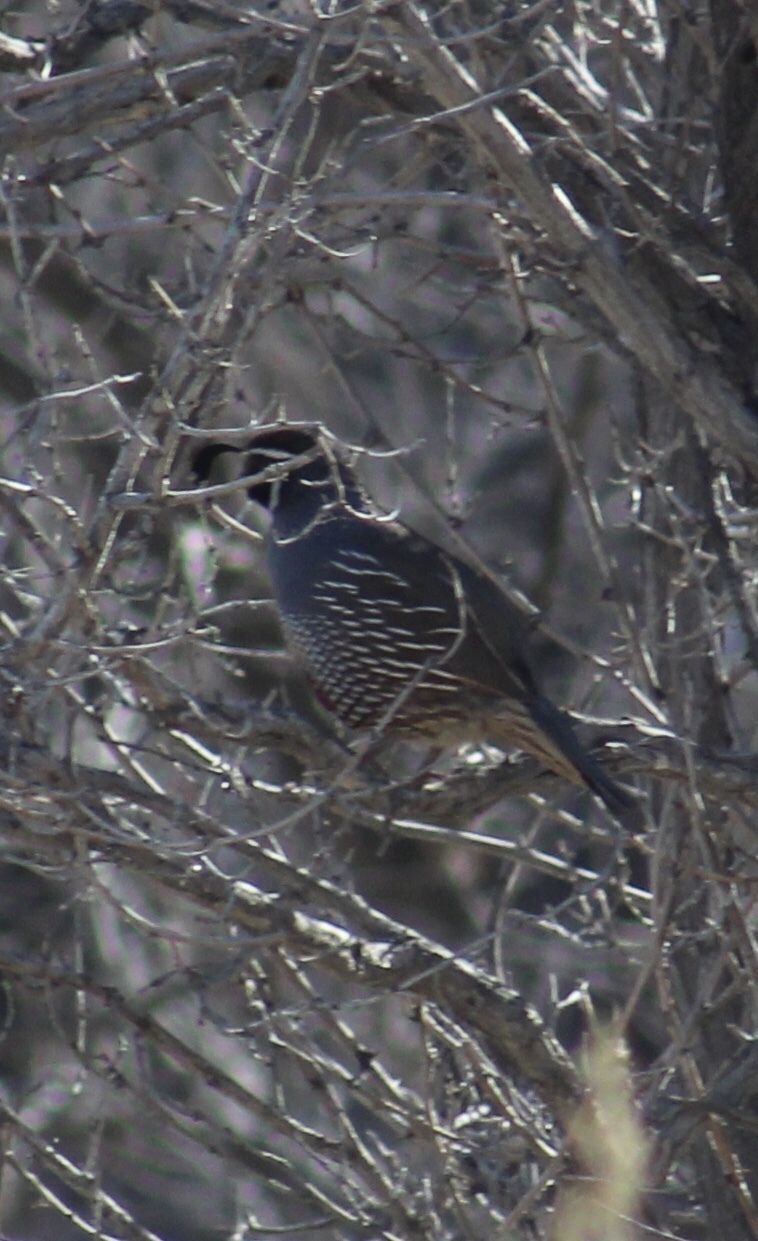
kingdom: Animalia
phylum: Chordata
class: Aves
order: Galliformes
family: Odontophoridae
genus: Callipepla
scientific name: Callipepla californica
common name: California quail
